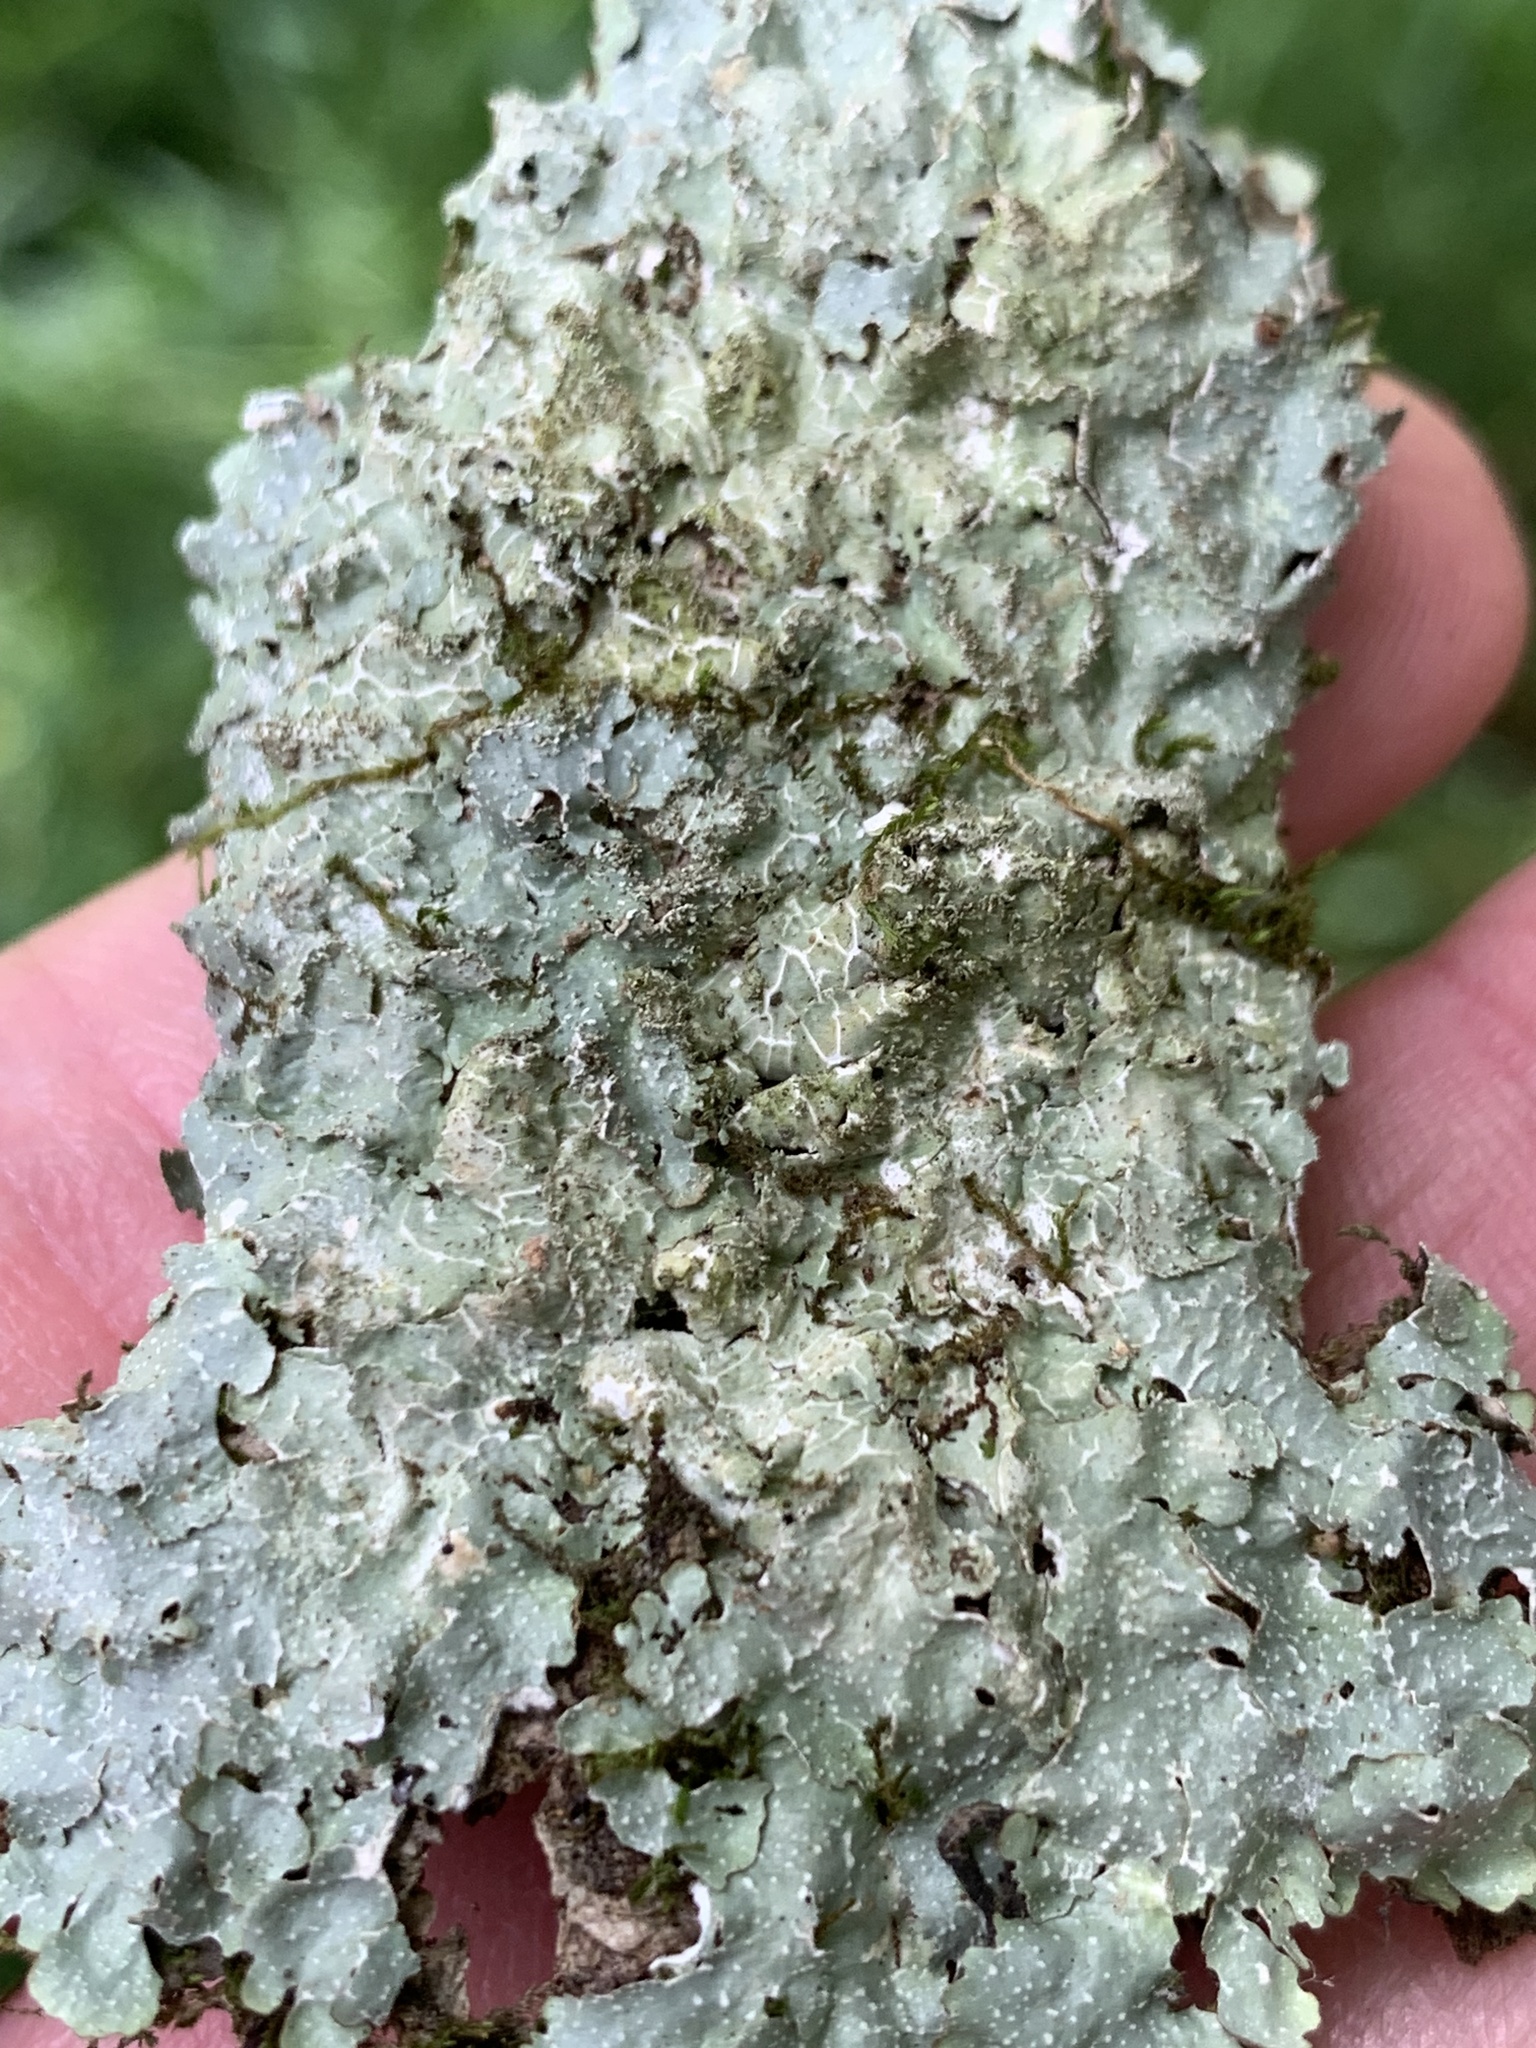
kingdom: Fungi
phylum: Ascomycota
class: Lecanoromycetes
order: Lecanorales
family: Parmeliaceae
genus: Punctelia
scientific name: Punctelia rudecta
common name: Rough speckled shield lichen
